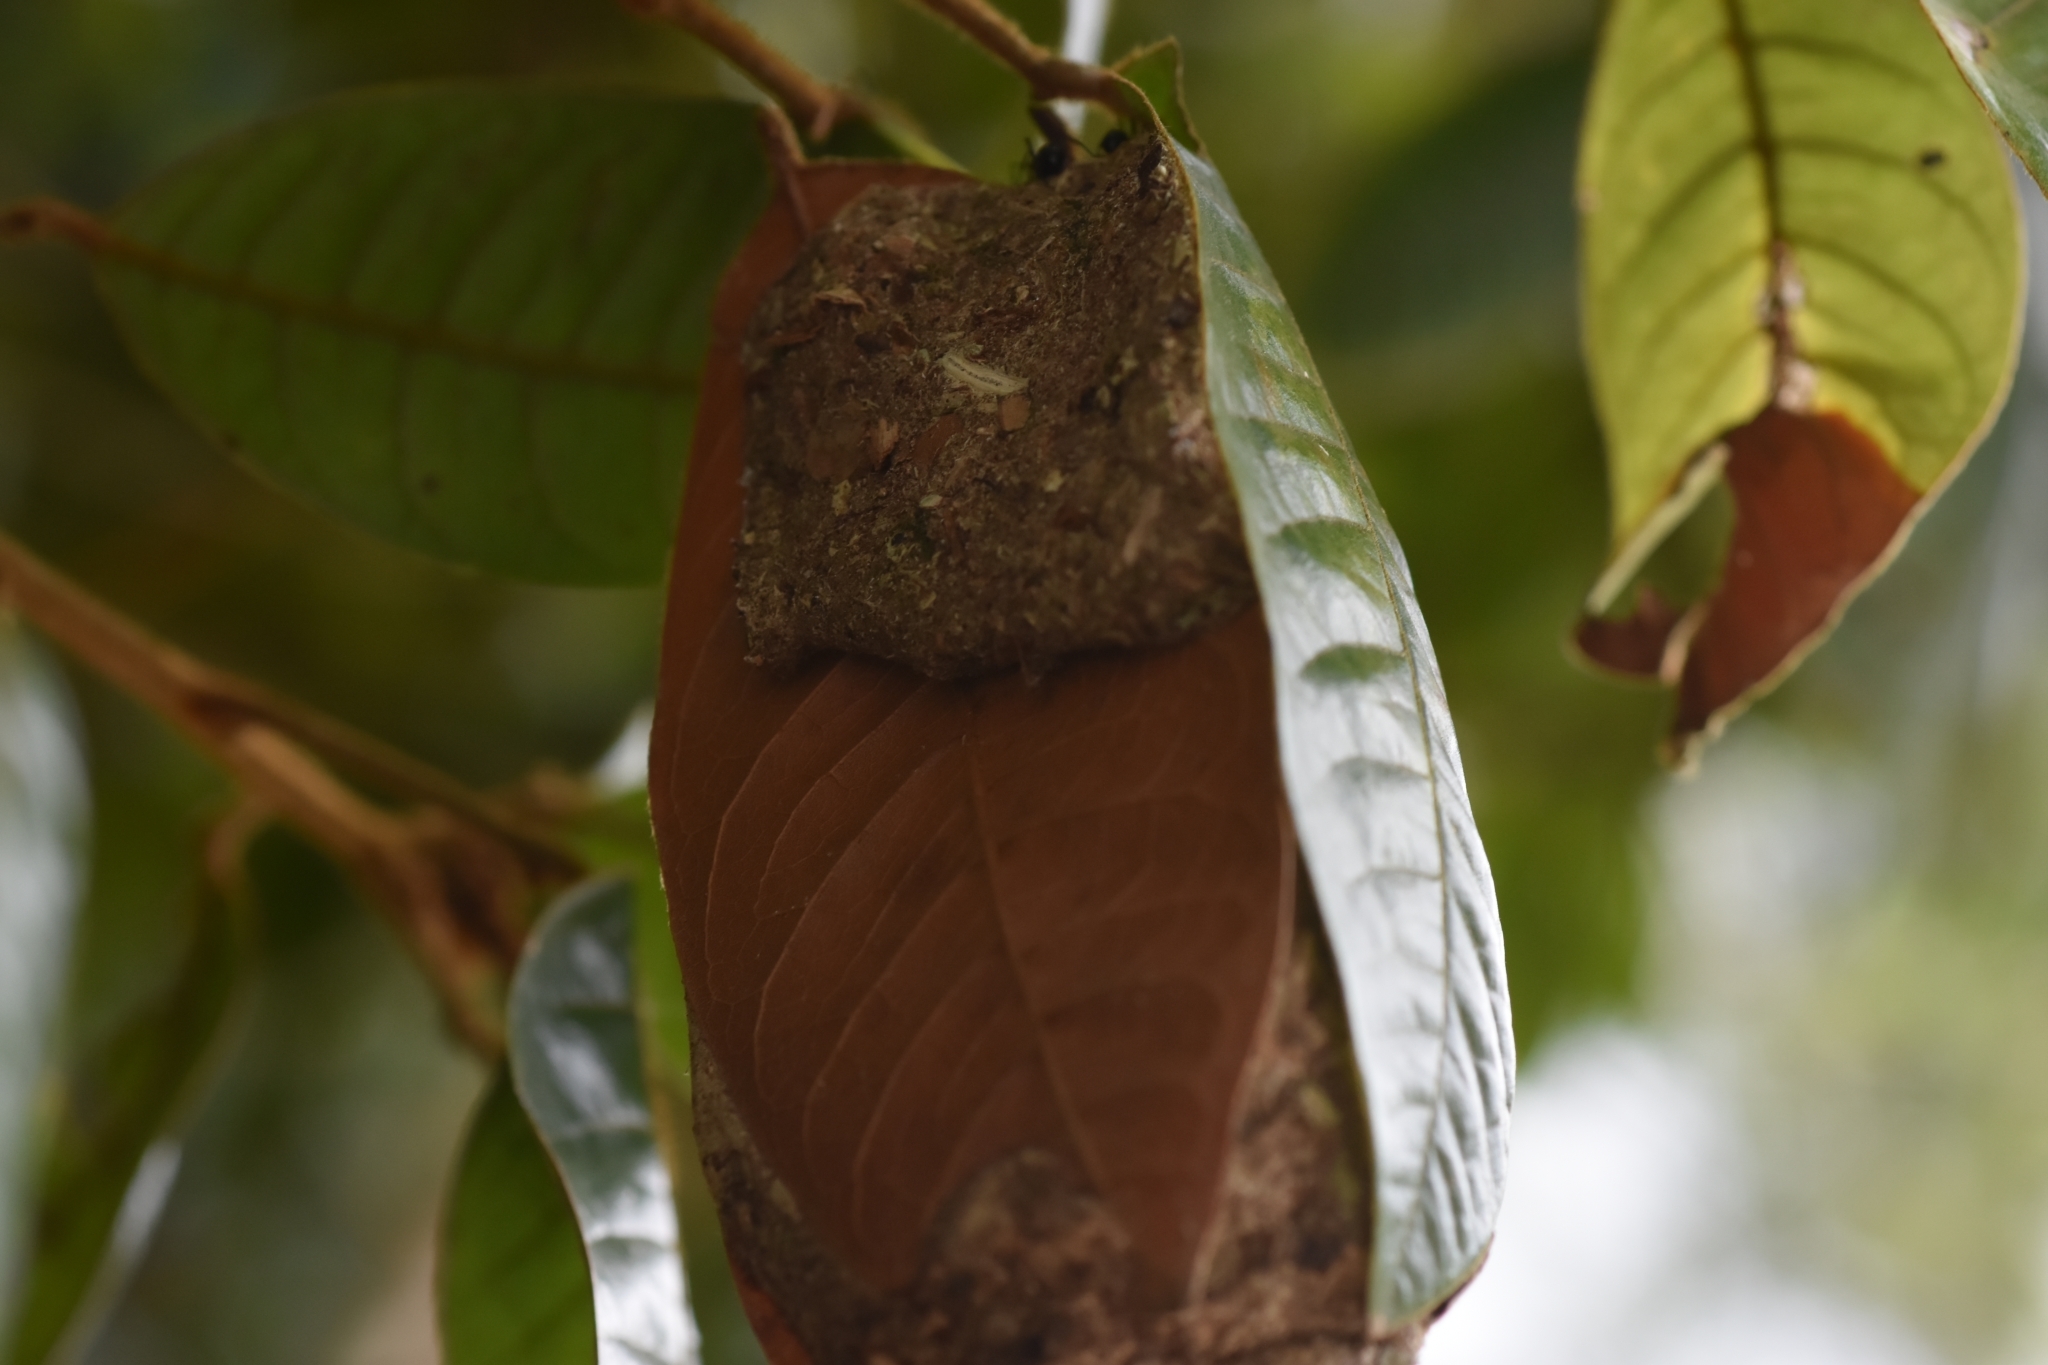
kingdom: Animalia
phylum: Arthropoda
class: Insecta
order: Hymenoptera
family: Formicidae
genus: Polyrhachis
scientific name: Polyrhachis delicata
